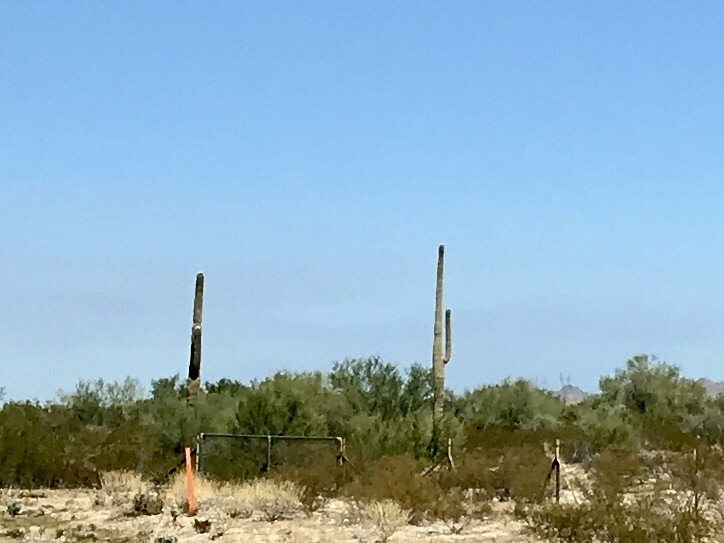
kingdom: Plantae
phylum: Tracheophyta
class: Magnoliopsida
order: Caryophyllales
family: Cactaceae
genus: Carnegiea
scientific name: Carnegiea gigantea
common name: Saguaro
